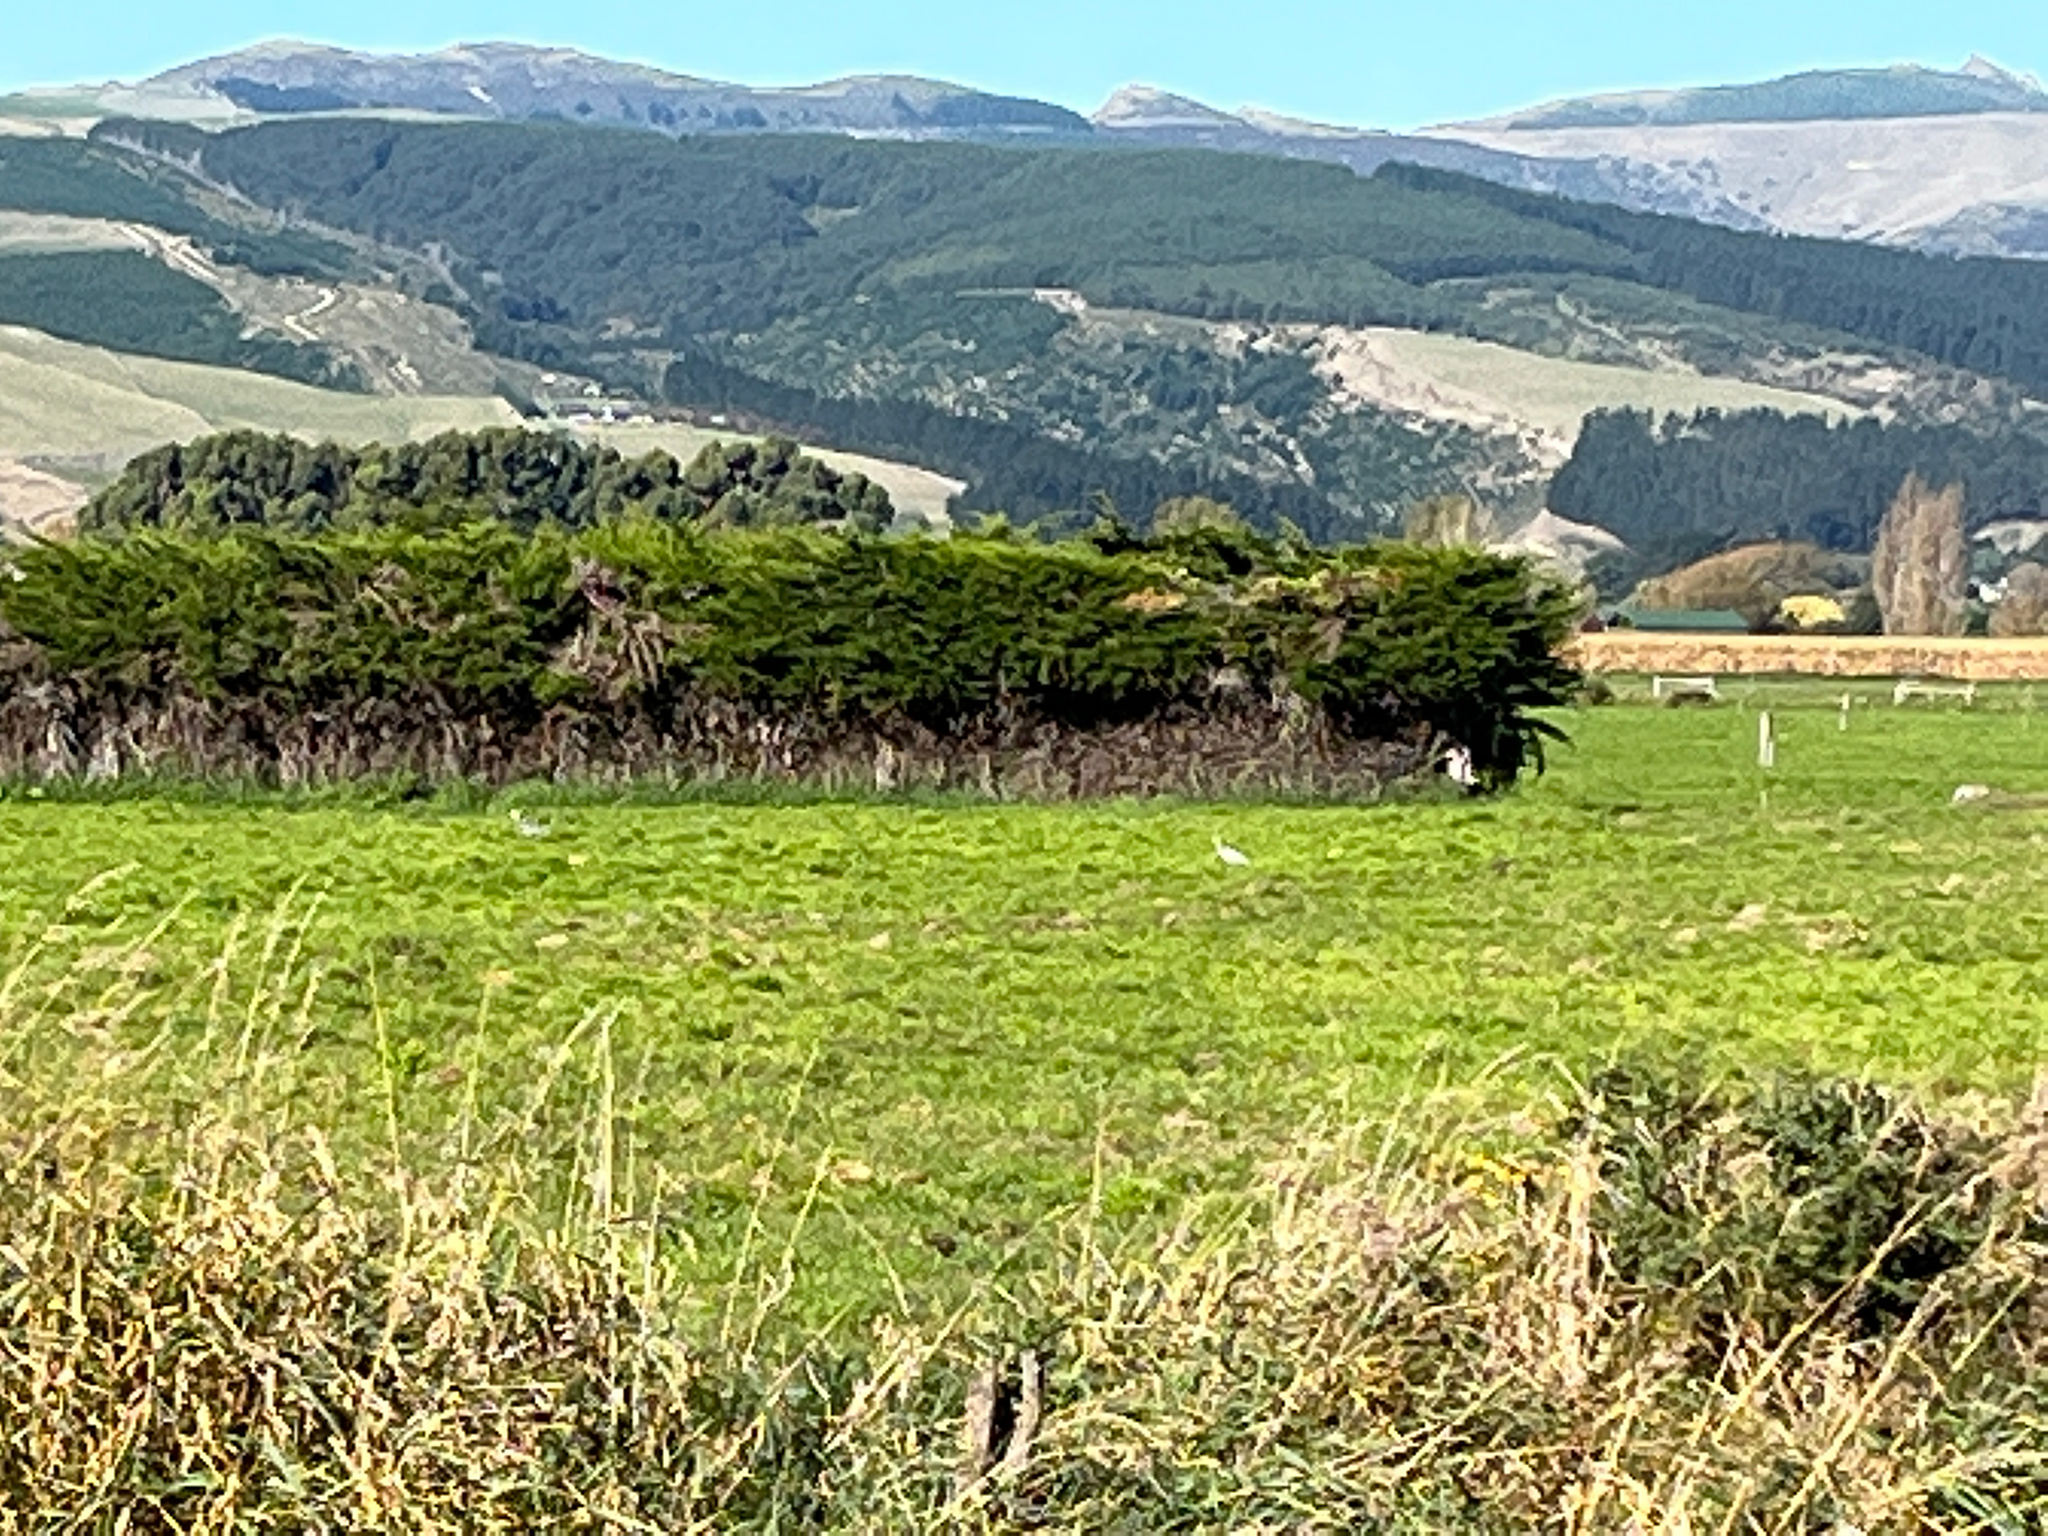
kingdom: Animalia
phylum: Chordata
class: Aves
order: Pelecaniformes
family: Ardeidae
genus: Egretta
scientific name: Egretta novaehollandiae
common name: White-faced heron
